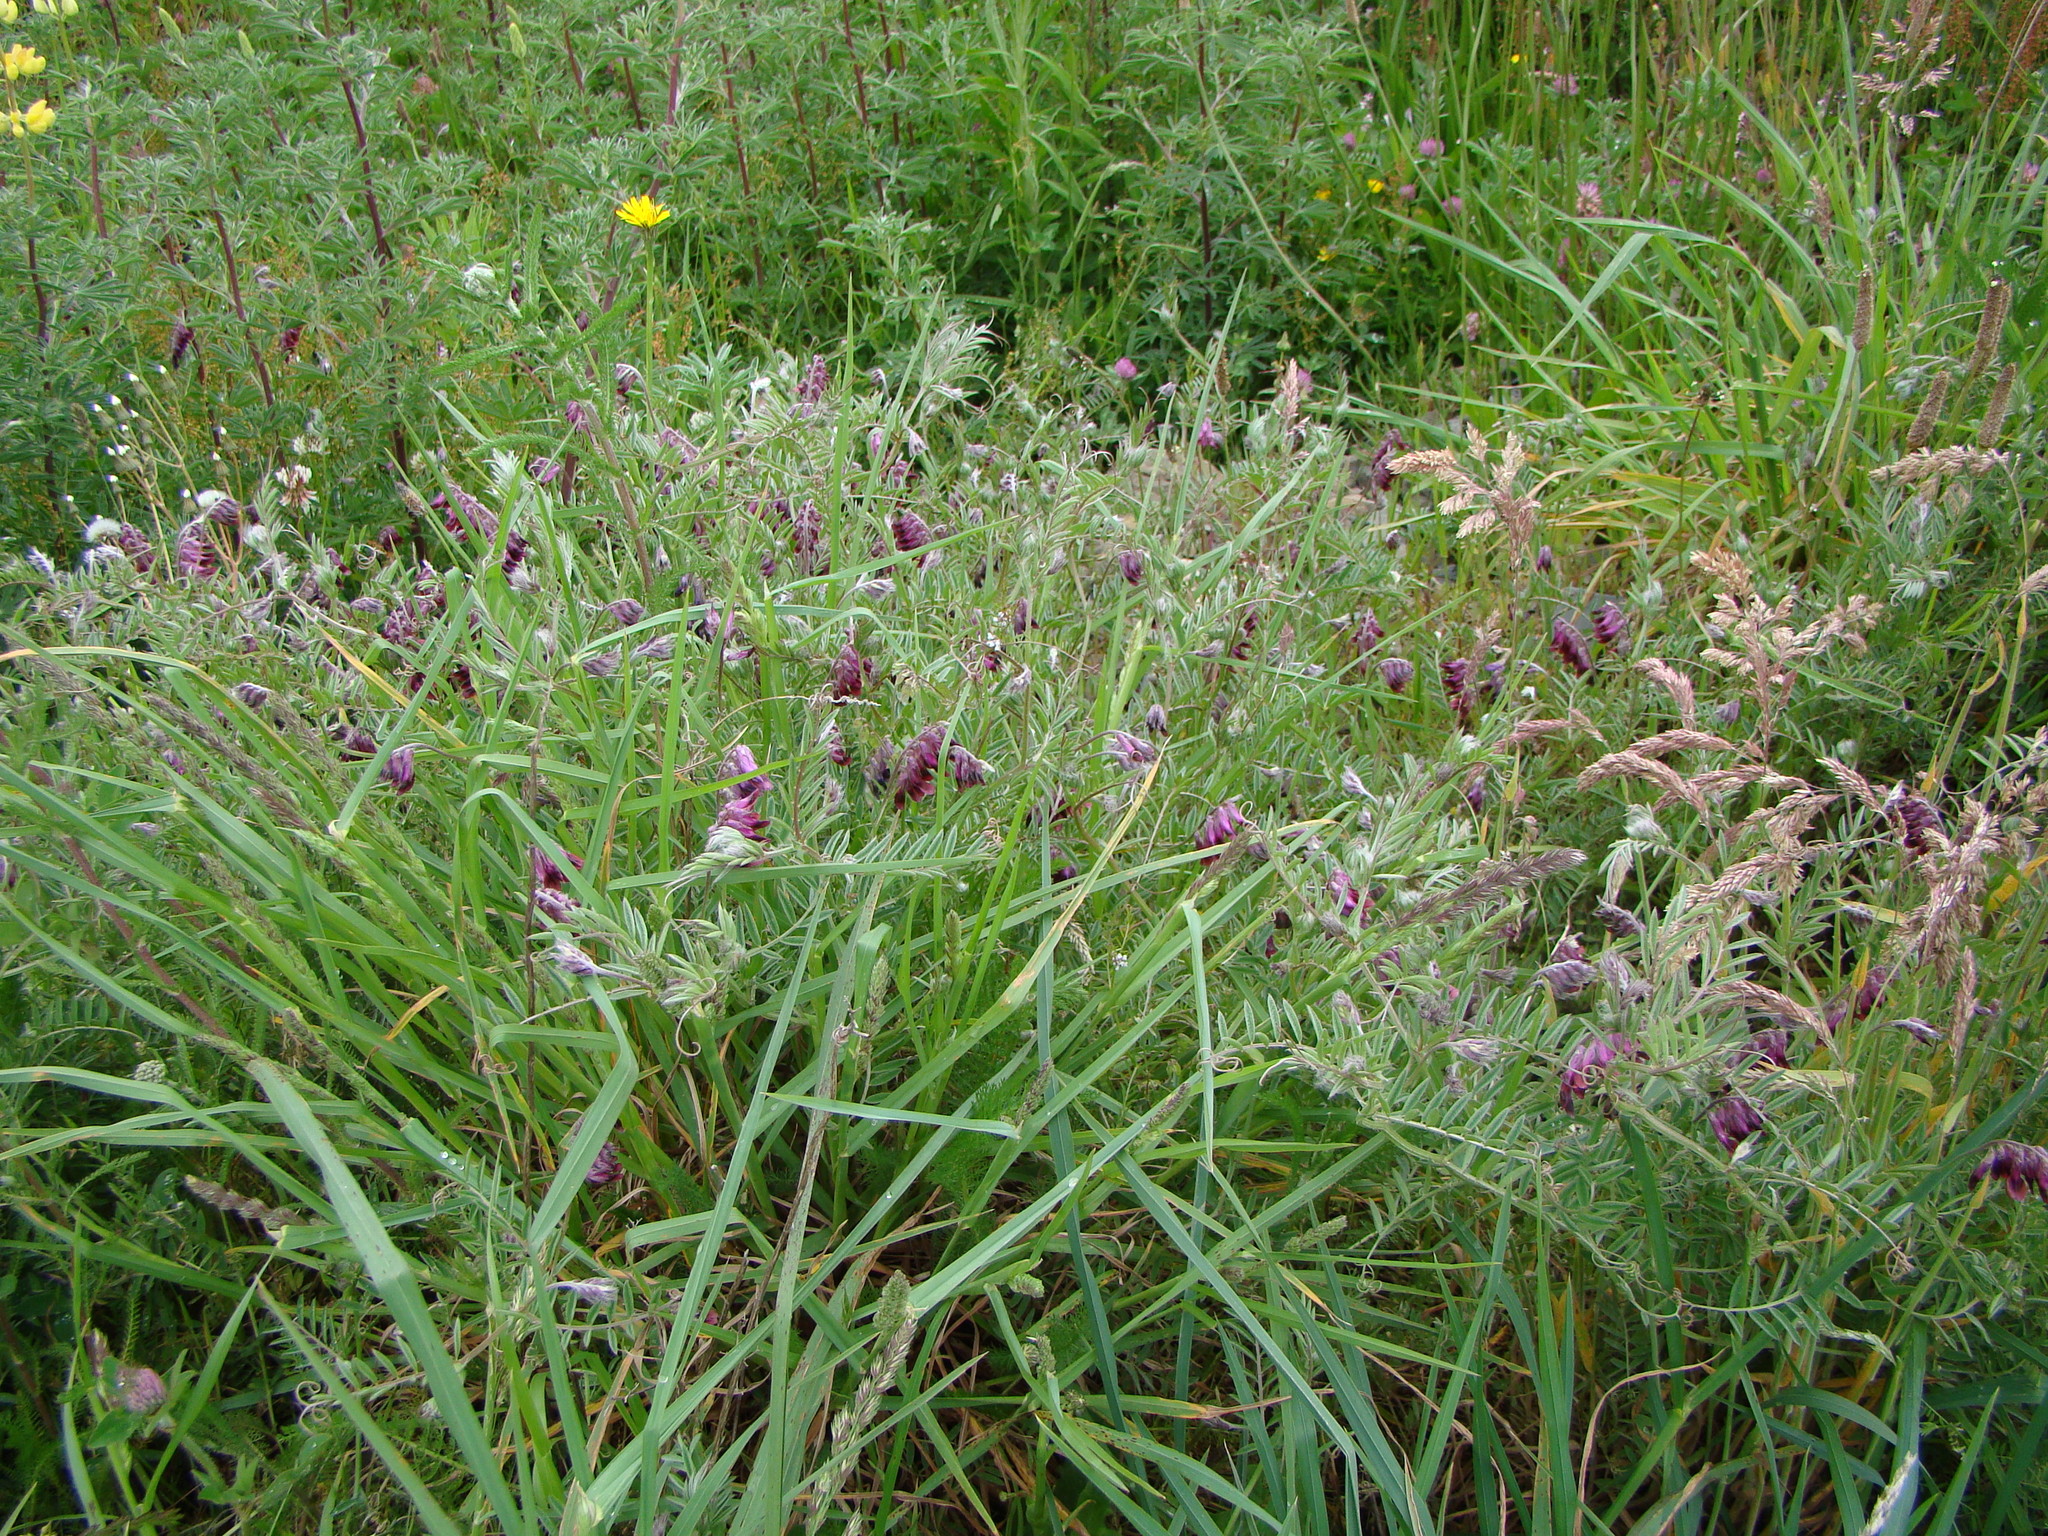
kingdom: Plantae
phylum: Tracheophyta
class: Magnoliopsida
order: Fabales
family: Fabaceae
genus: Vicia
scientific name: Vicia benghalensis
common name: Purple vetch
